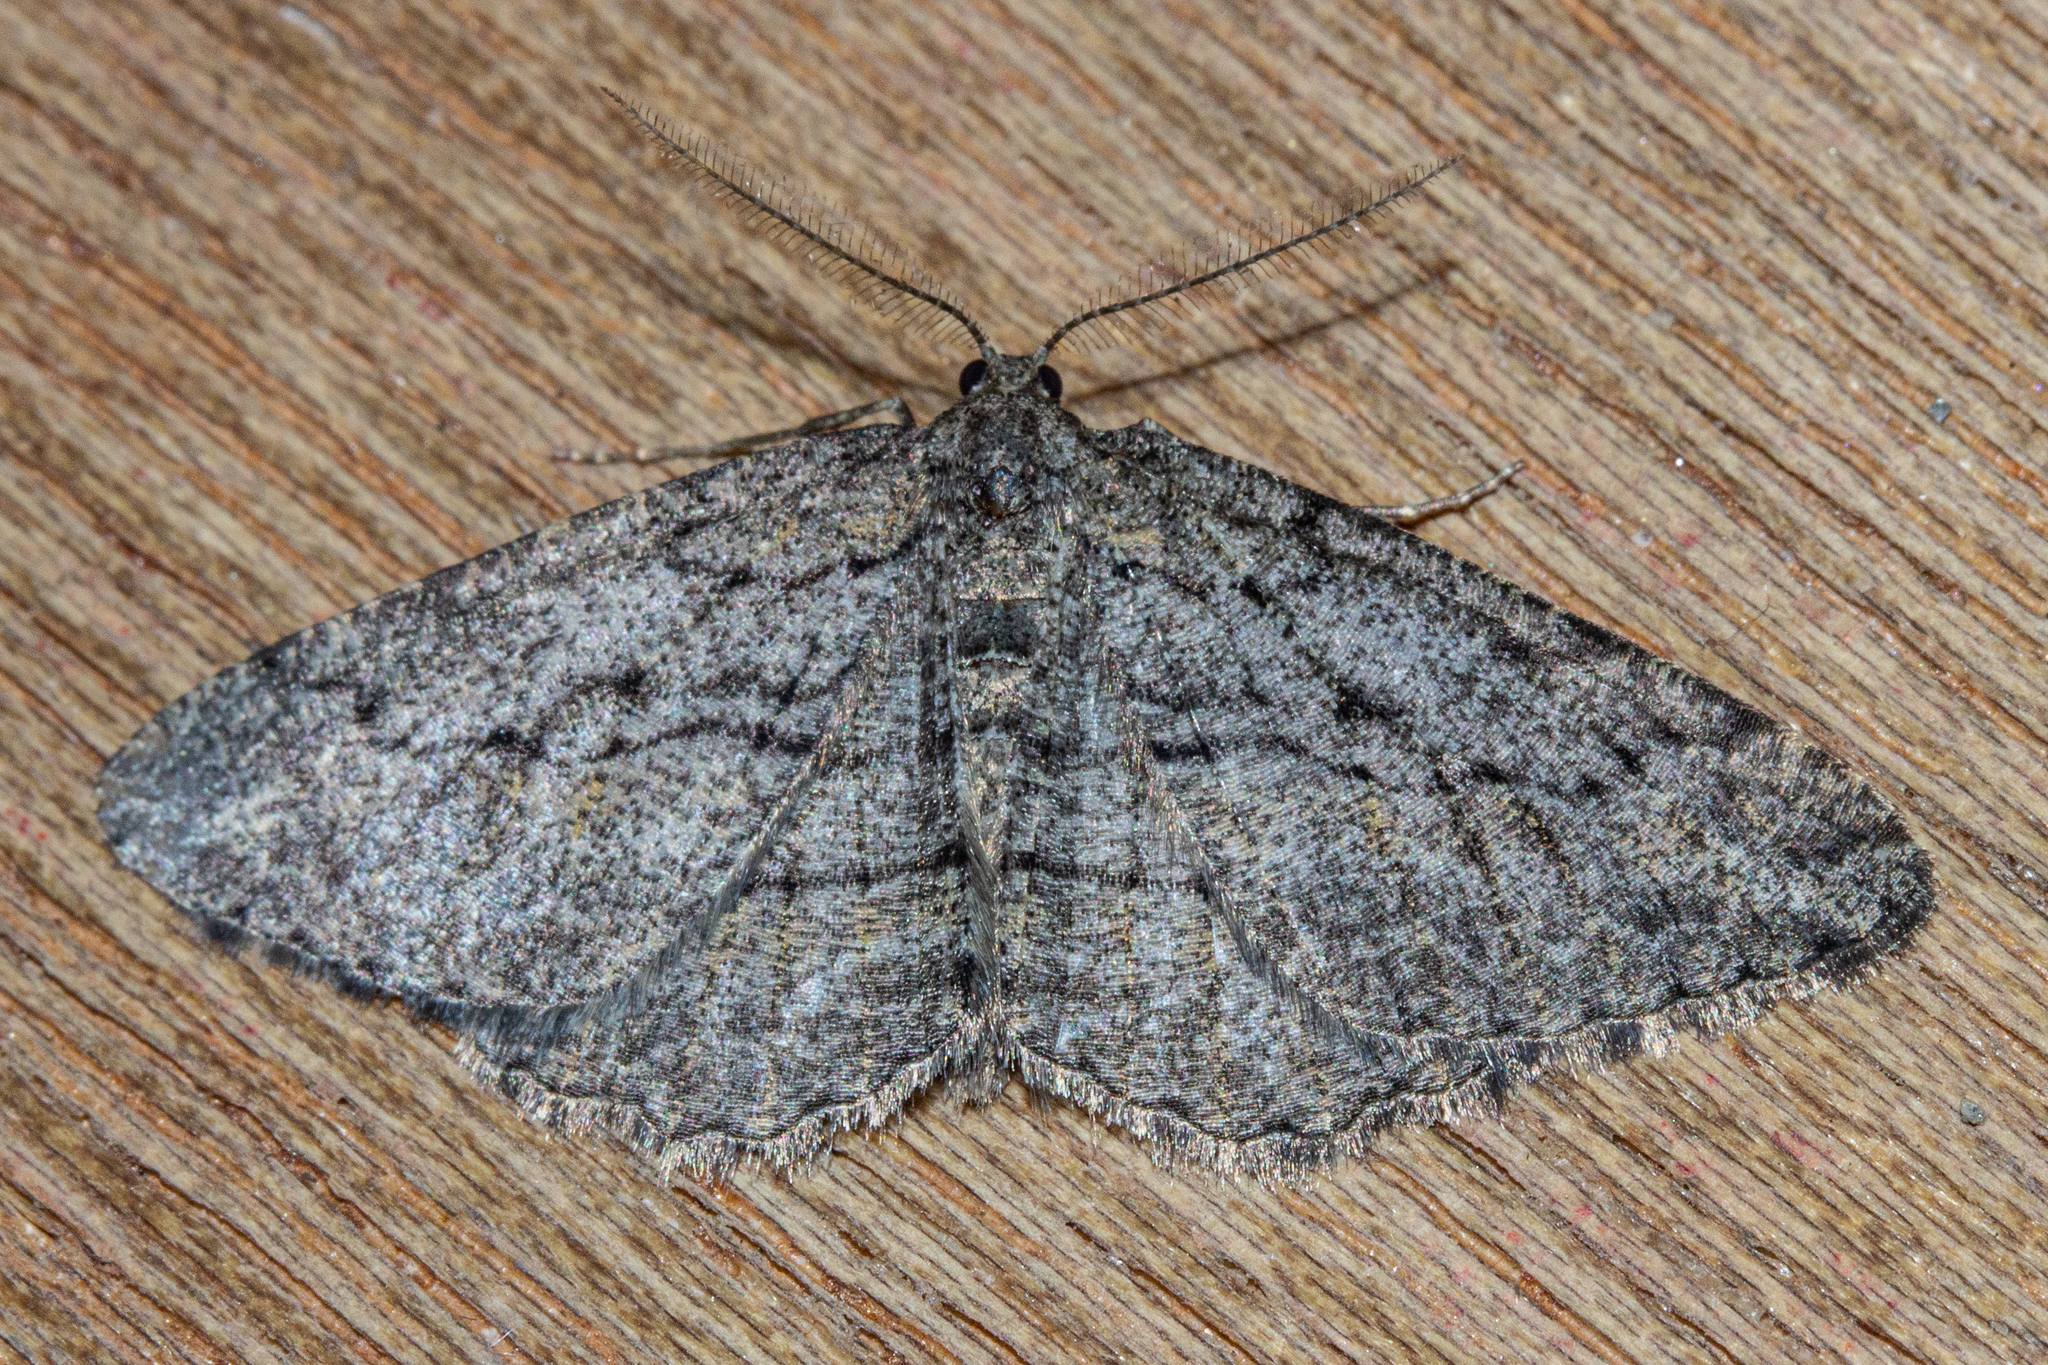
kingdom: Animalia
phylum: Arthropoda
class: Insecta
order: Lepidoptera
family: Geometridae
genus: Zermizinga
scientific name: Zermizinga indocilisaria
